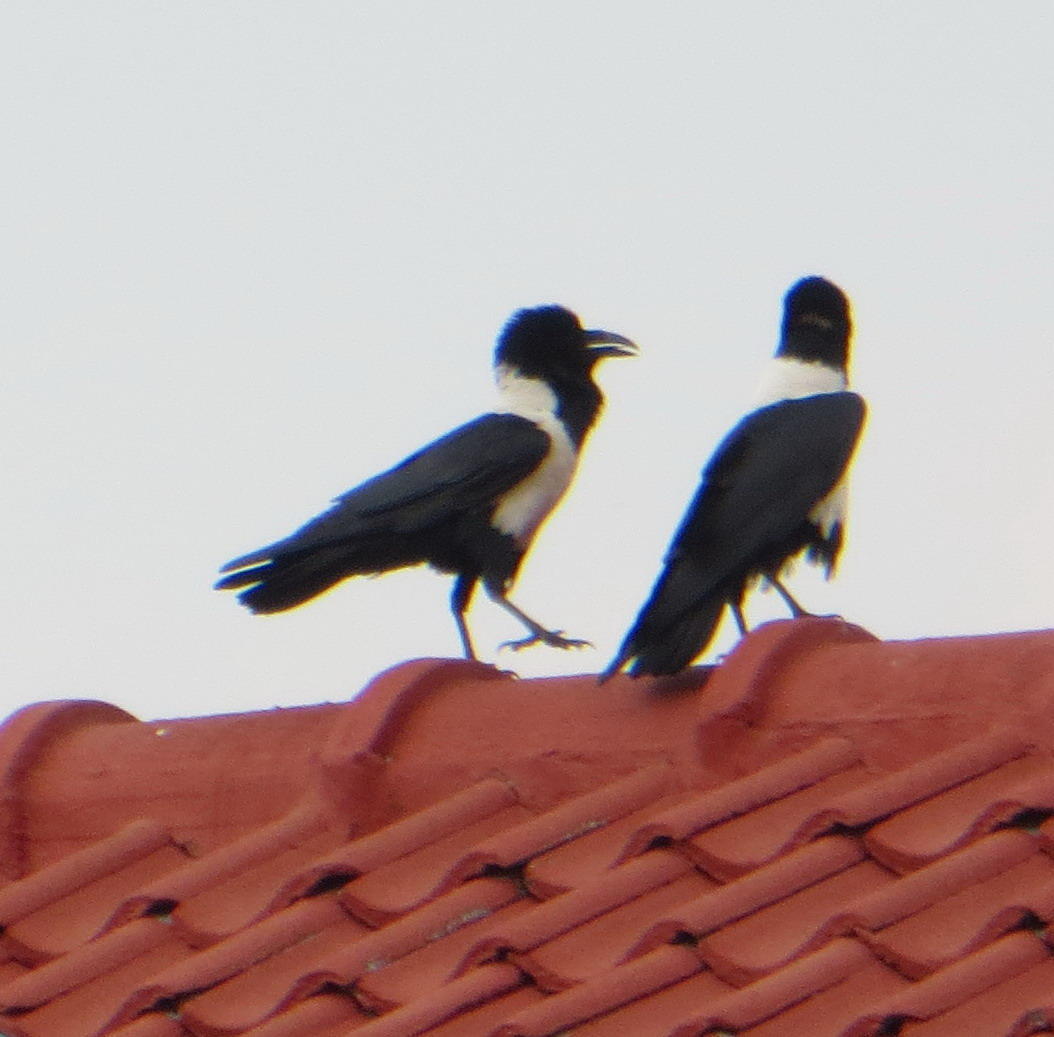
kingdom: Animalia
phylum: Chordata
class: Aves
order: Passeriformes
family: Corvidae
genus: Corvus
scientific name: Corvus albus
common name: Pied crow
